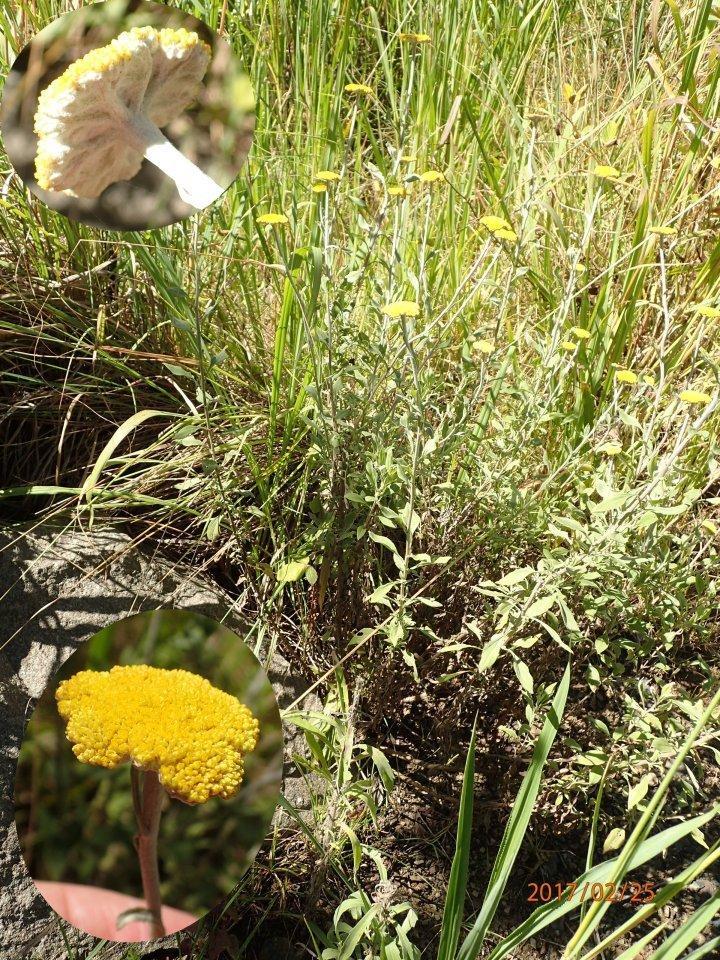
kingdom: Plantae
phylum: Tracheophyta
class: Magnoliopsida
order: Asterales
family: Asteraceae
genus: Helichrysum
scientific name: Helichrysum umbraculigerum
